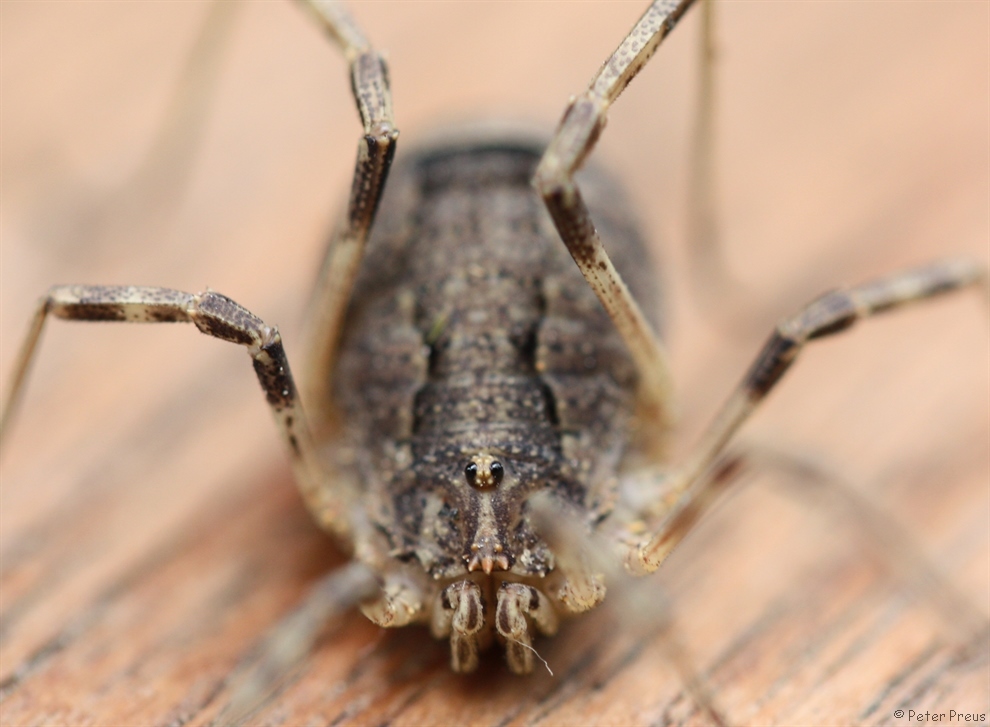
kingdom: Animalia
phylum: Arthropoda
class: Arachnida
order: Opiliones
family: Phalangiidae
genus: Odiellus
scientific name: Odiellus spinosus
